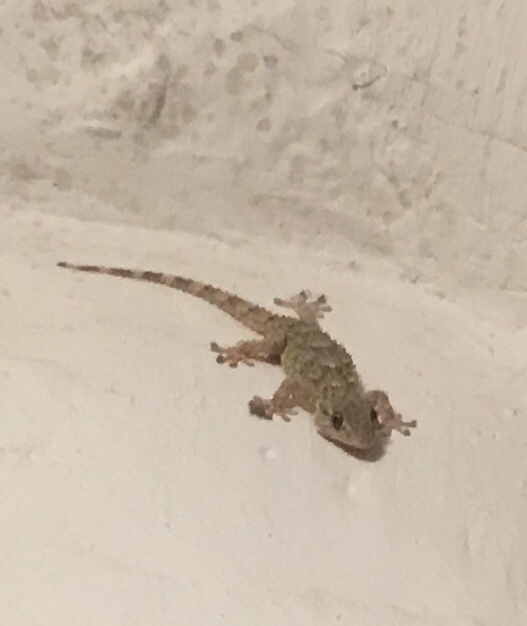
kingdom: Animalia
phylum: Chordata
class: Squamata
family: Phyllodactylidae
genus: Tarentola
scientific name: Tarentola mauritanica
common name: Moorish gecko
